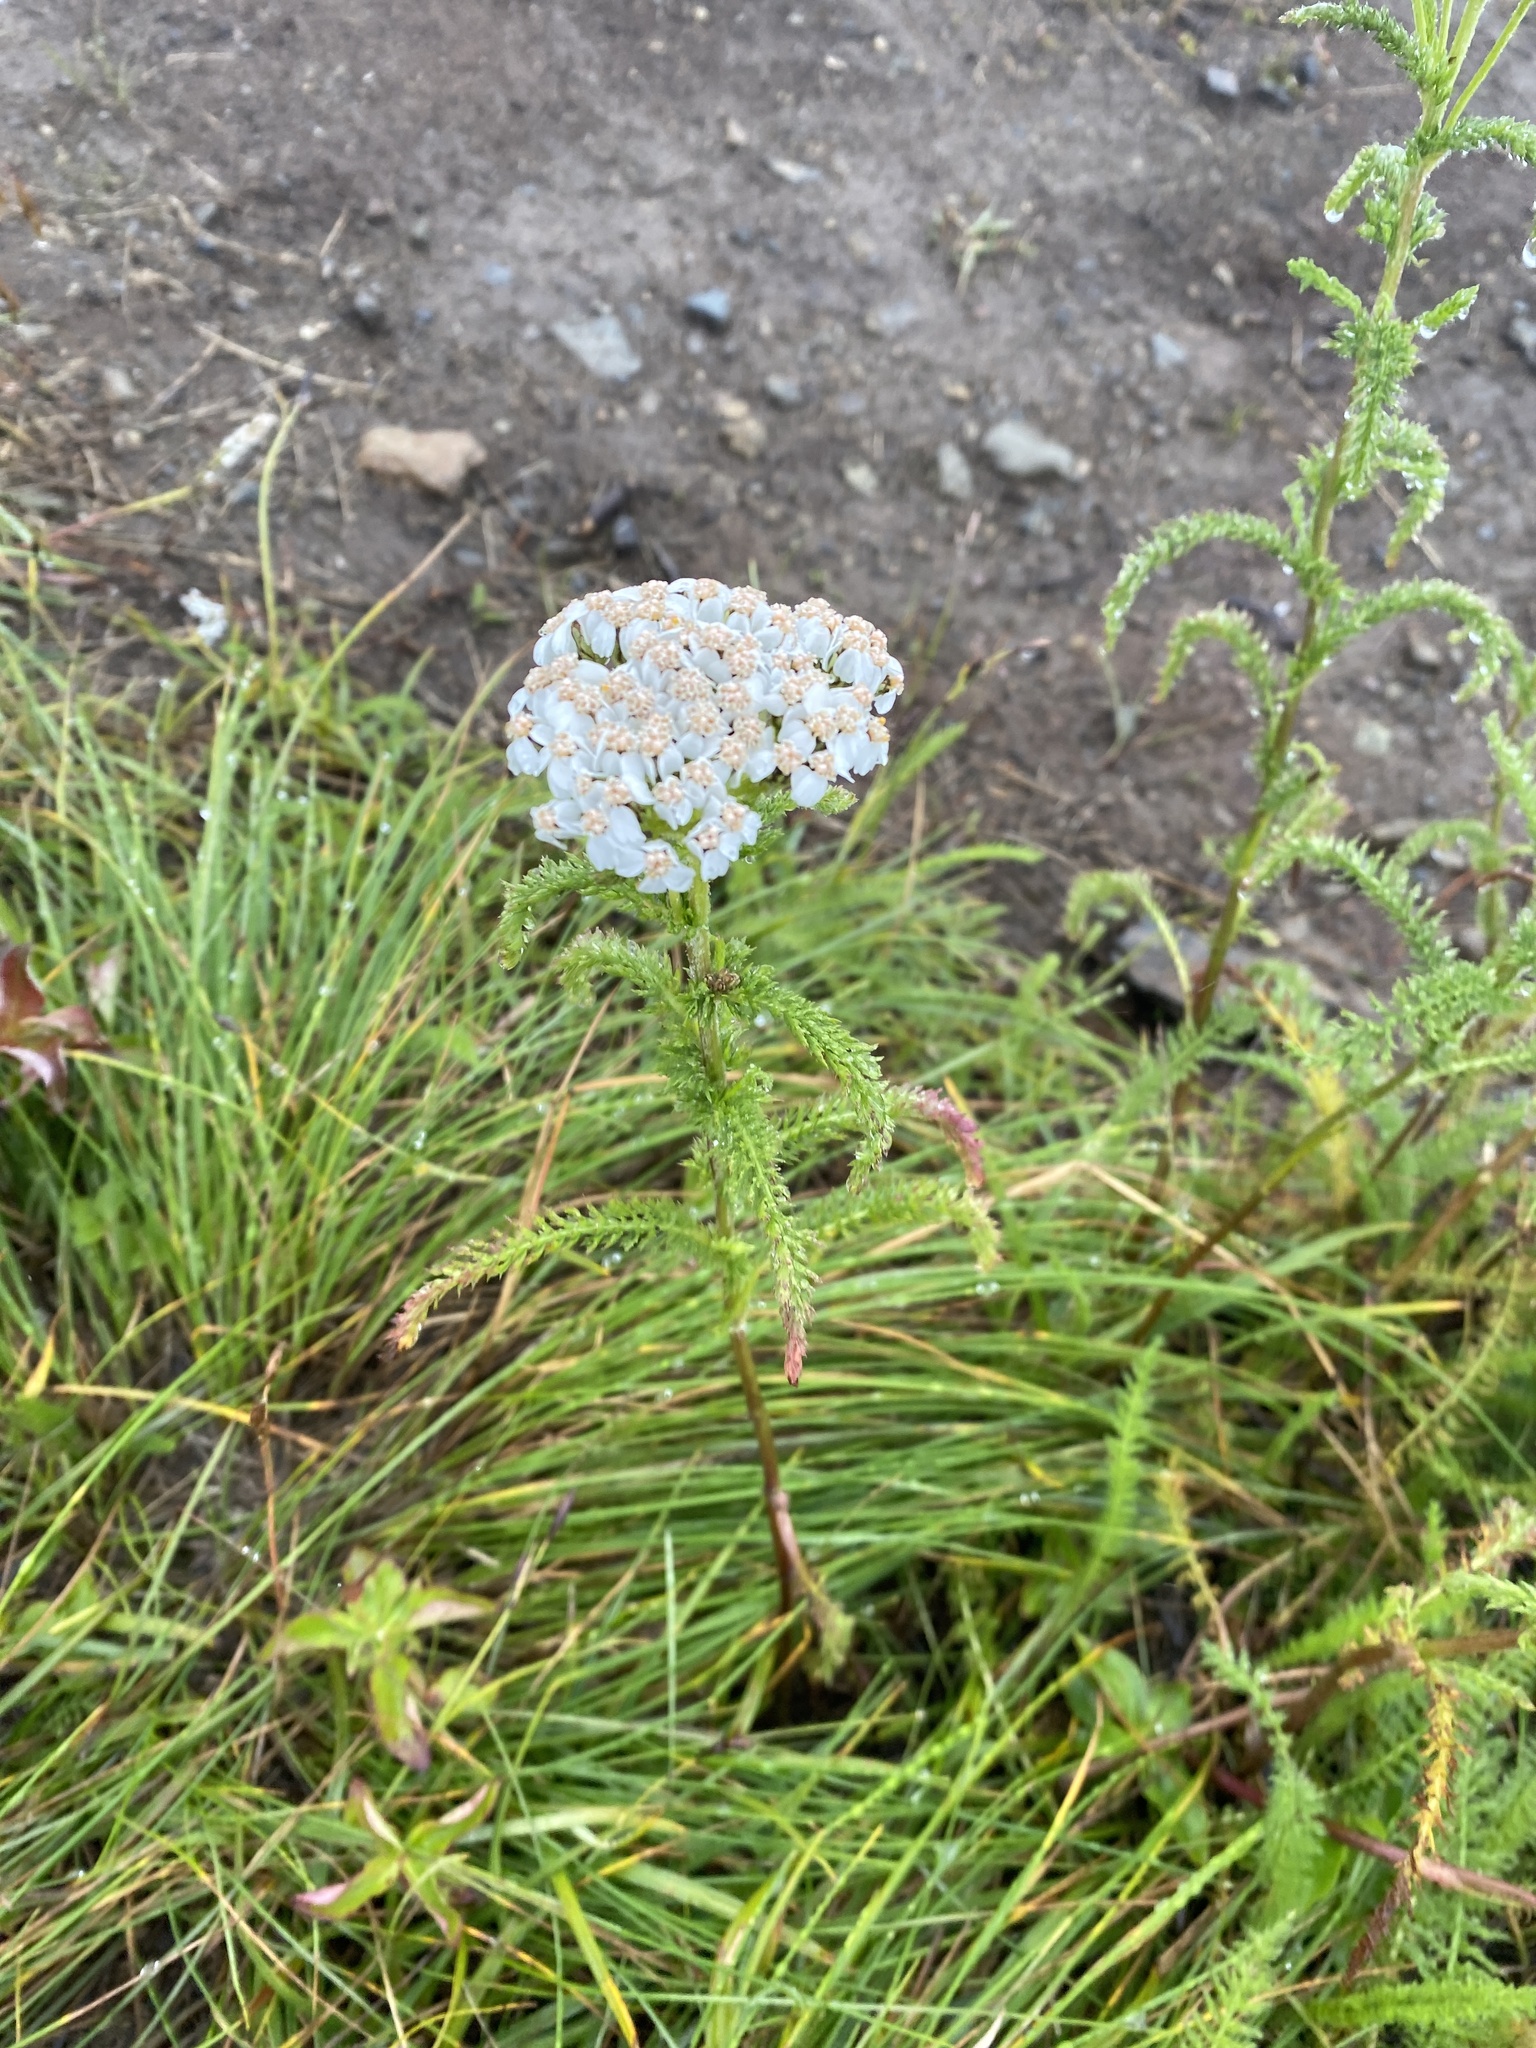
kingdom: Plantae
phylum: Tracheophyta
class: Magnoliopsida
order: Asterales
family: Asteraceae
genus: Achillea
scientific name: Achillea millefolium
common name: Yarrow
